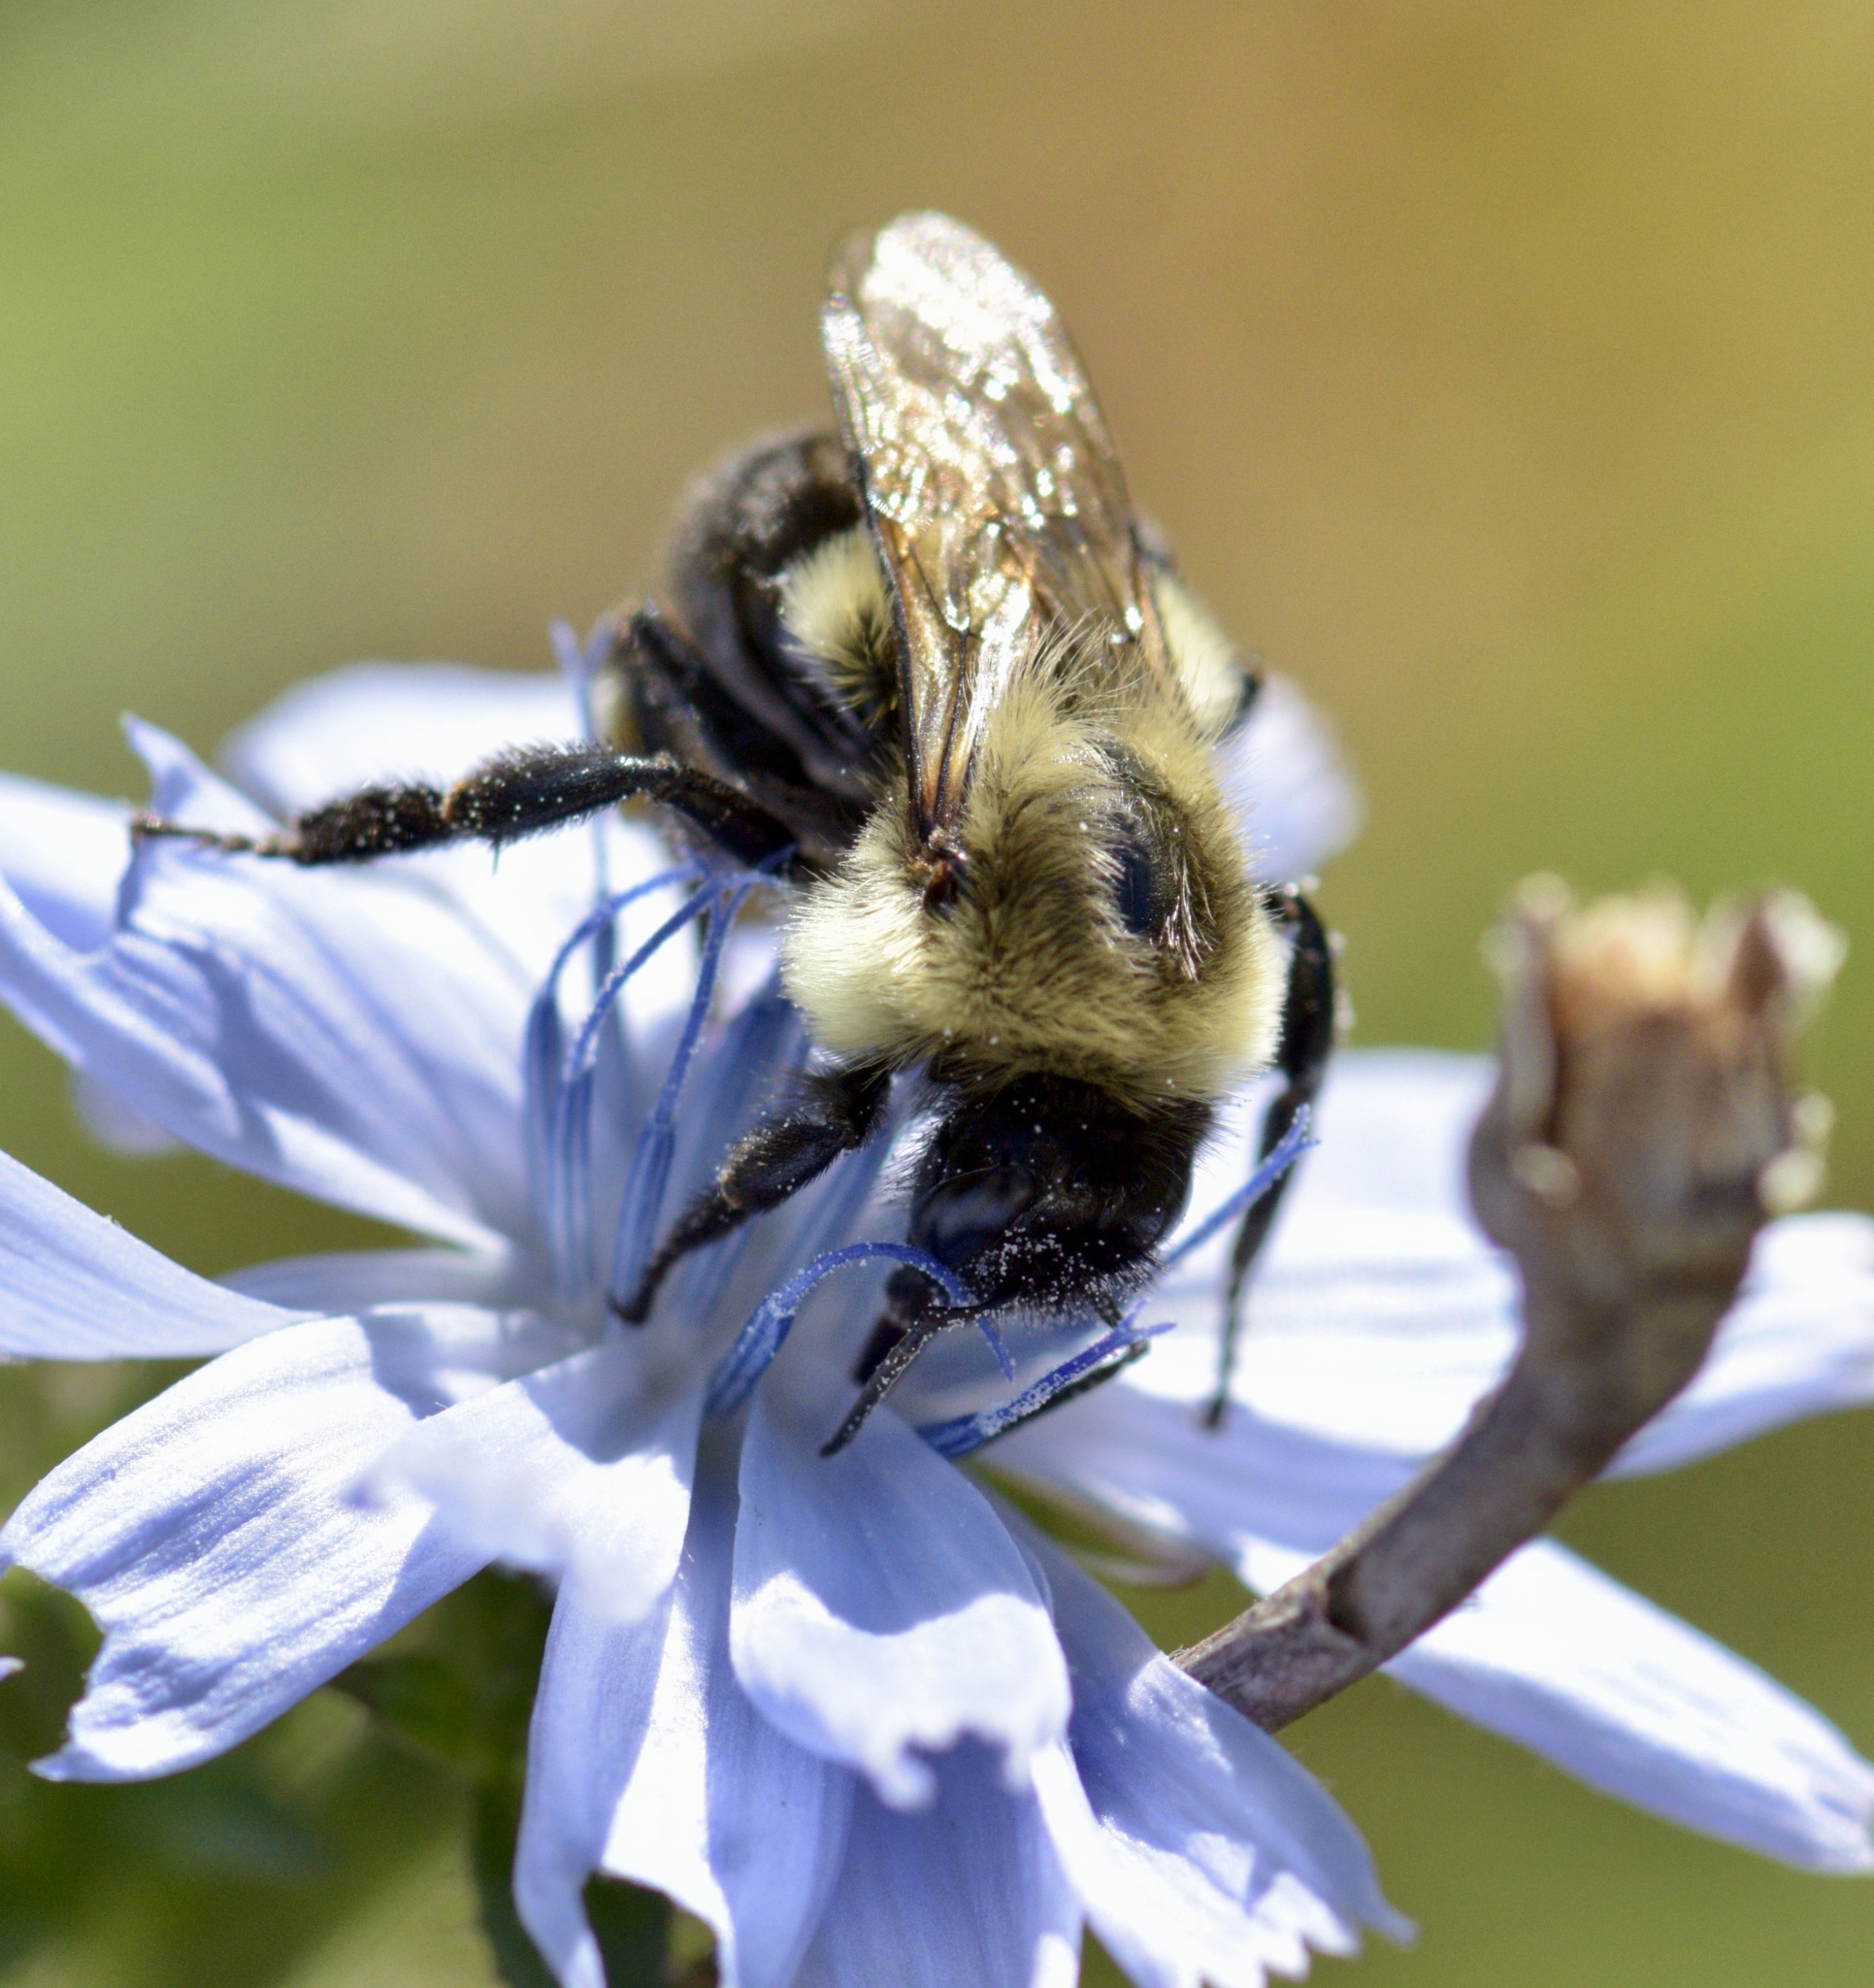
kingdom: Animalia
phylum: Arthropoda
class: Insecta
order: Hymenoptera
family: Apidae
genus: Bombus
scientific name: Bombus impatiens
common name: Common eastern bumble bee
